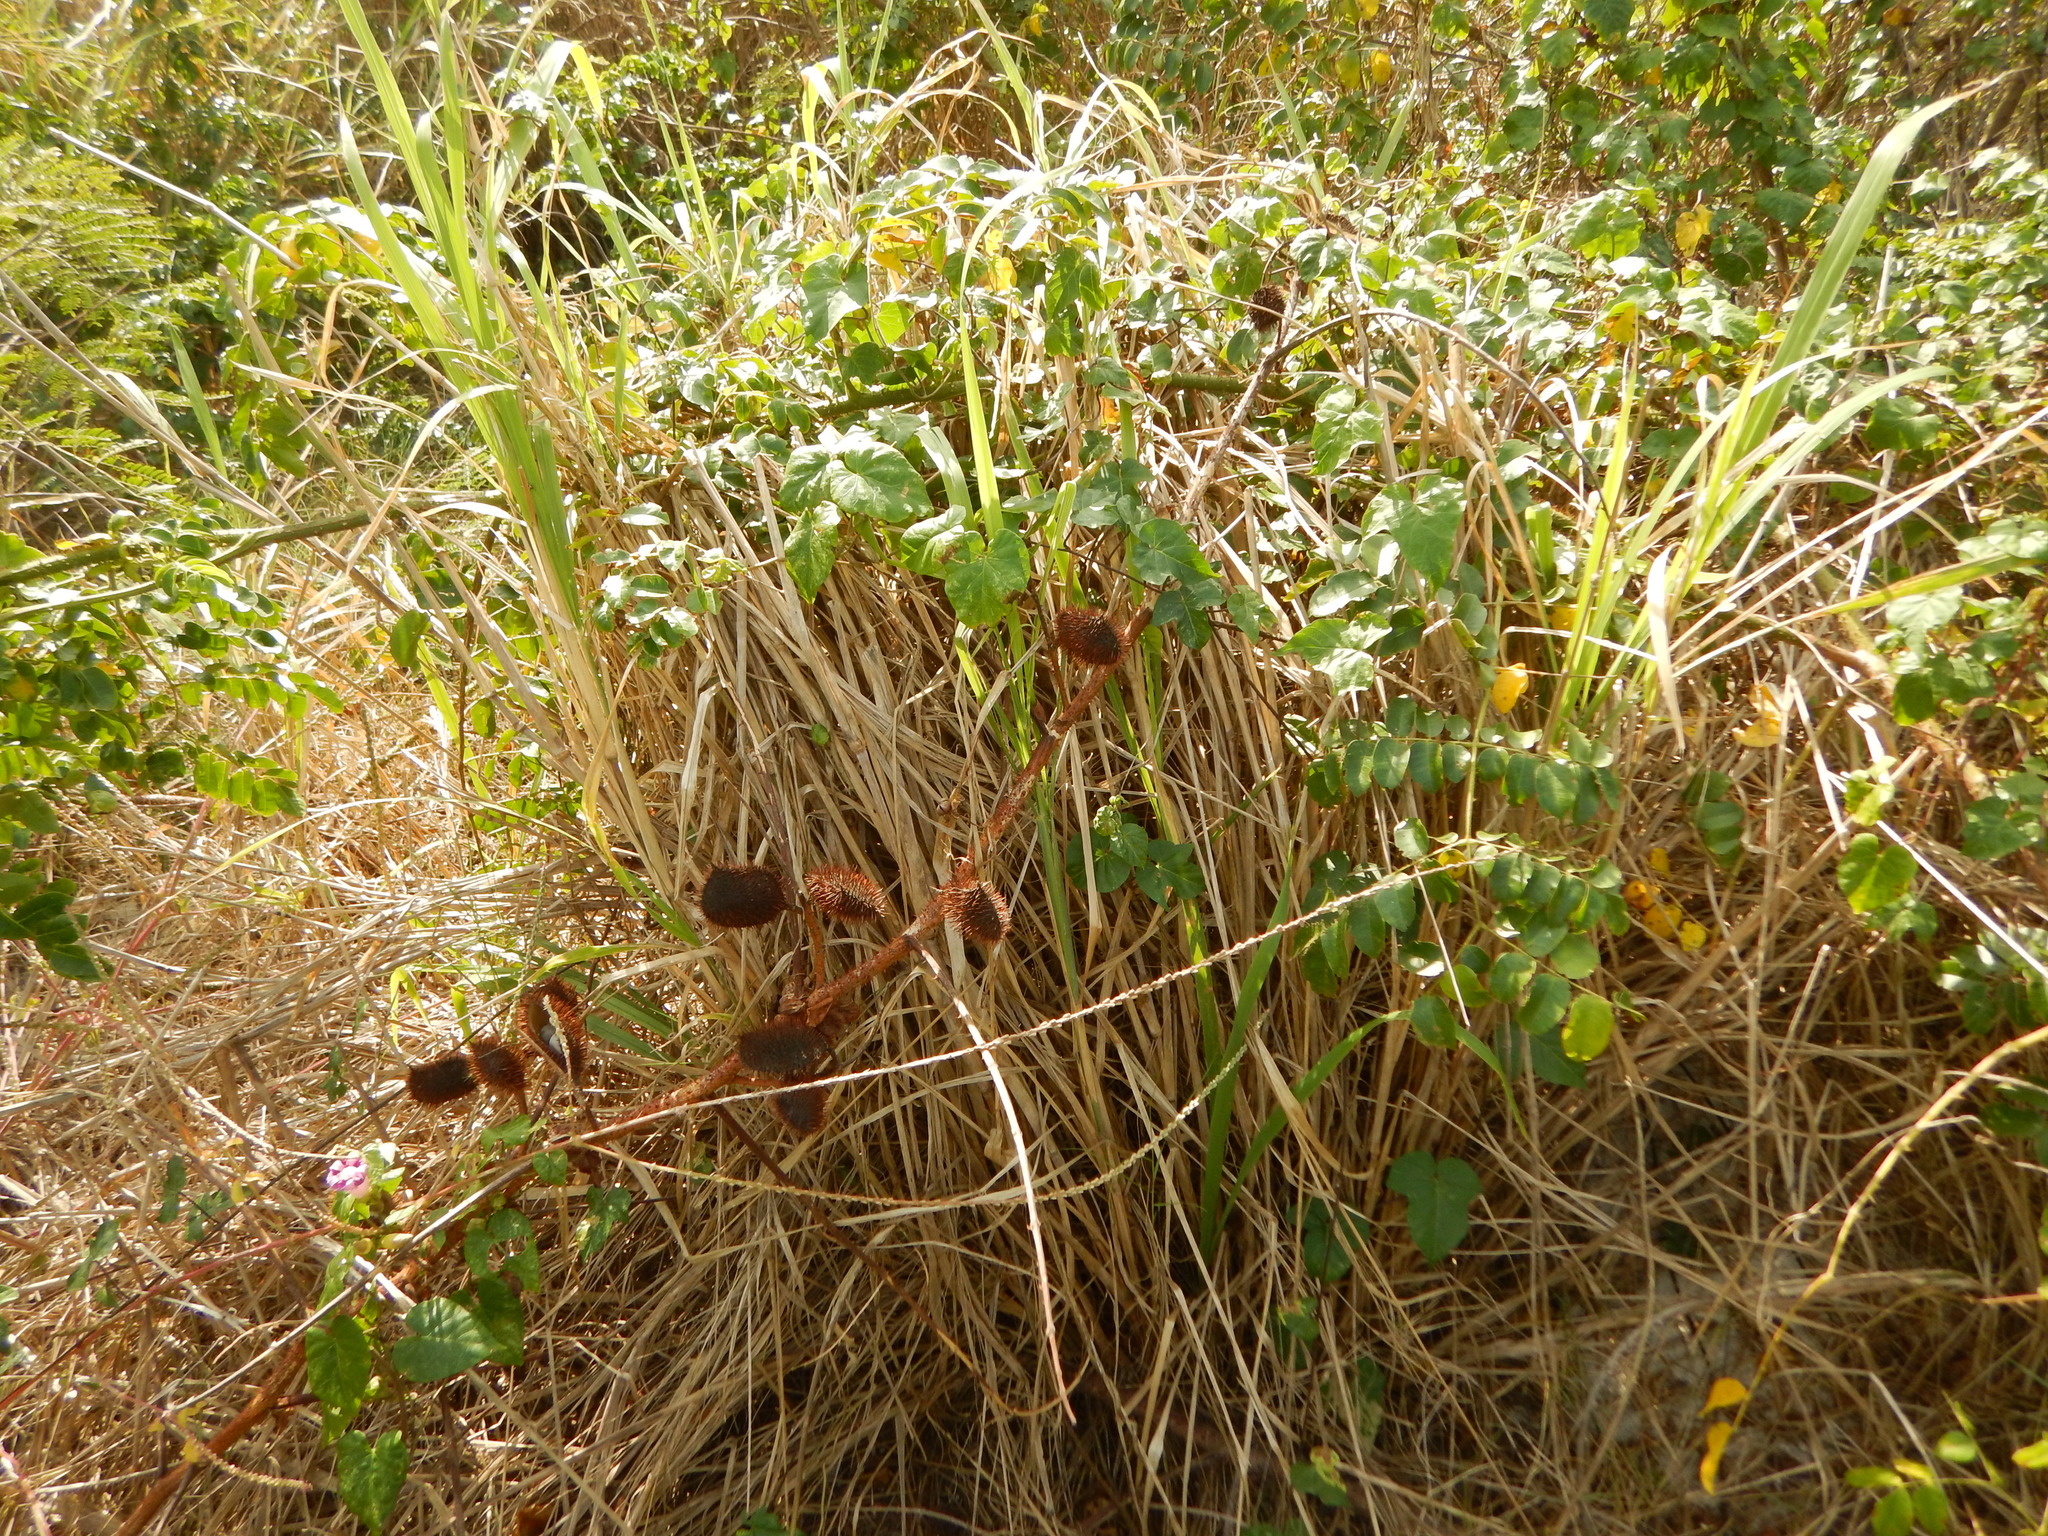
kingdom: Plantae
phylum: Tracheophyta
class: Magnoliopsida
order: Fabales
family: Fabaceae
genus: Guilandina
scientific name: Guilandina bonduc
